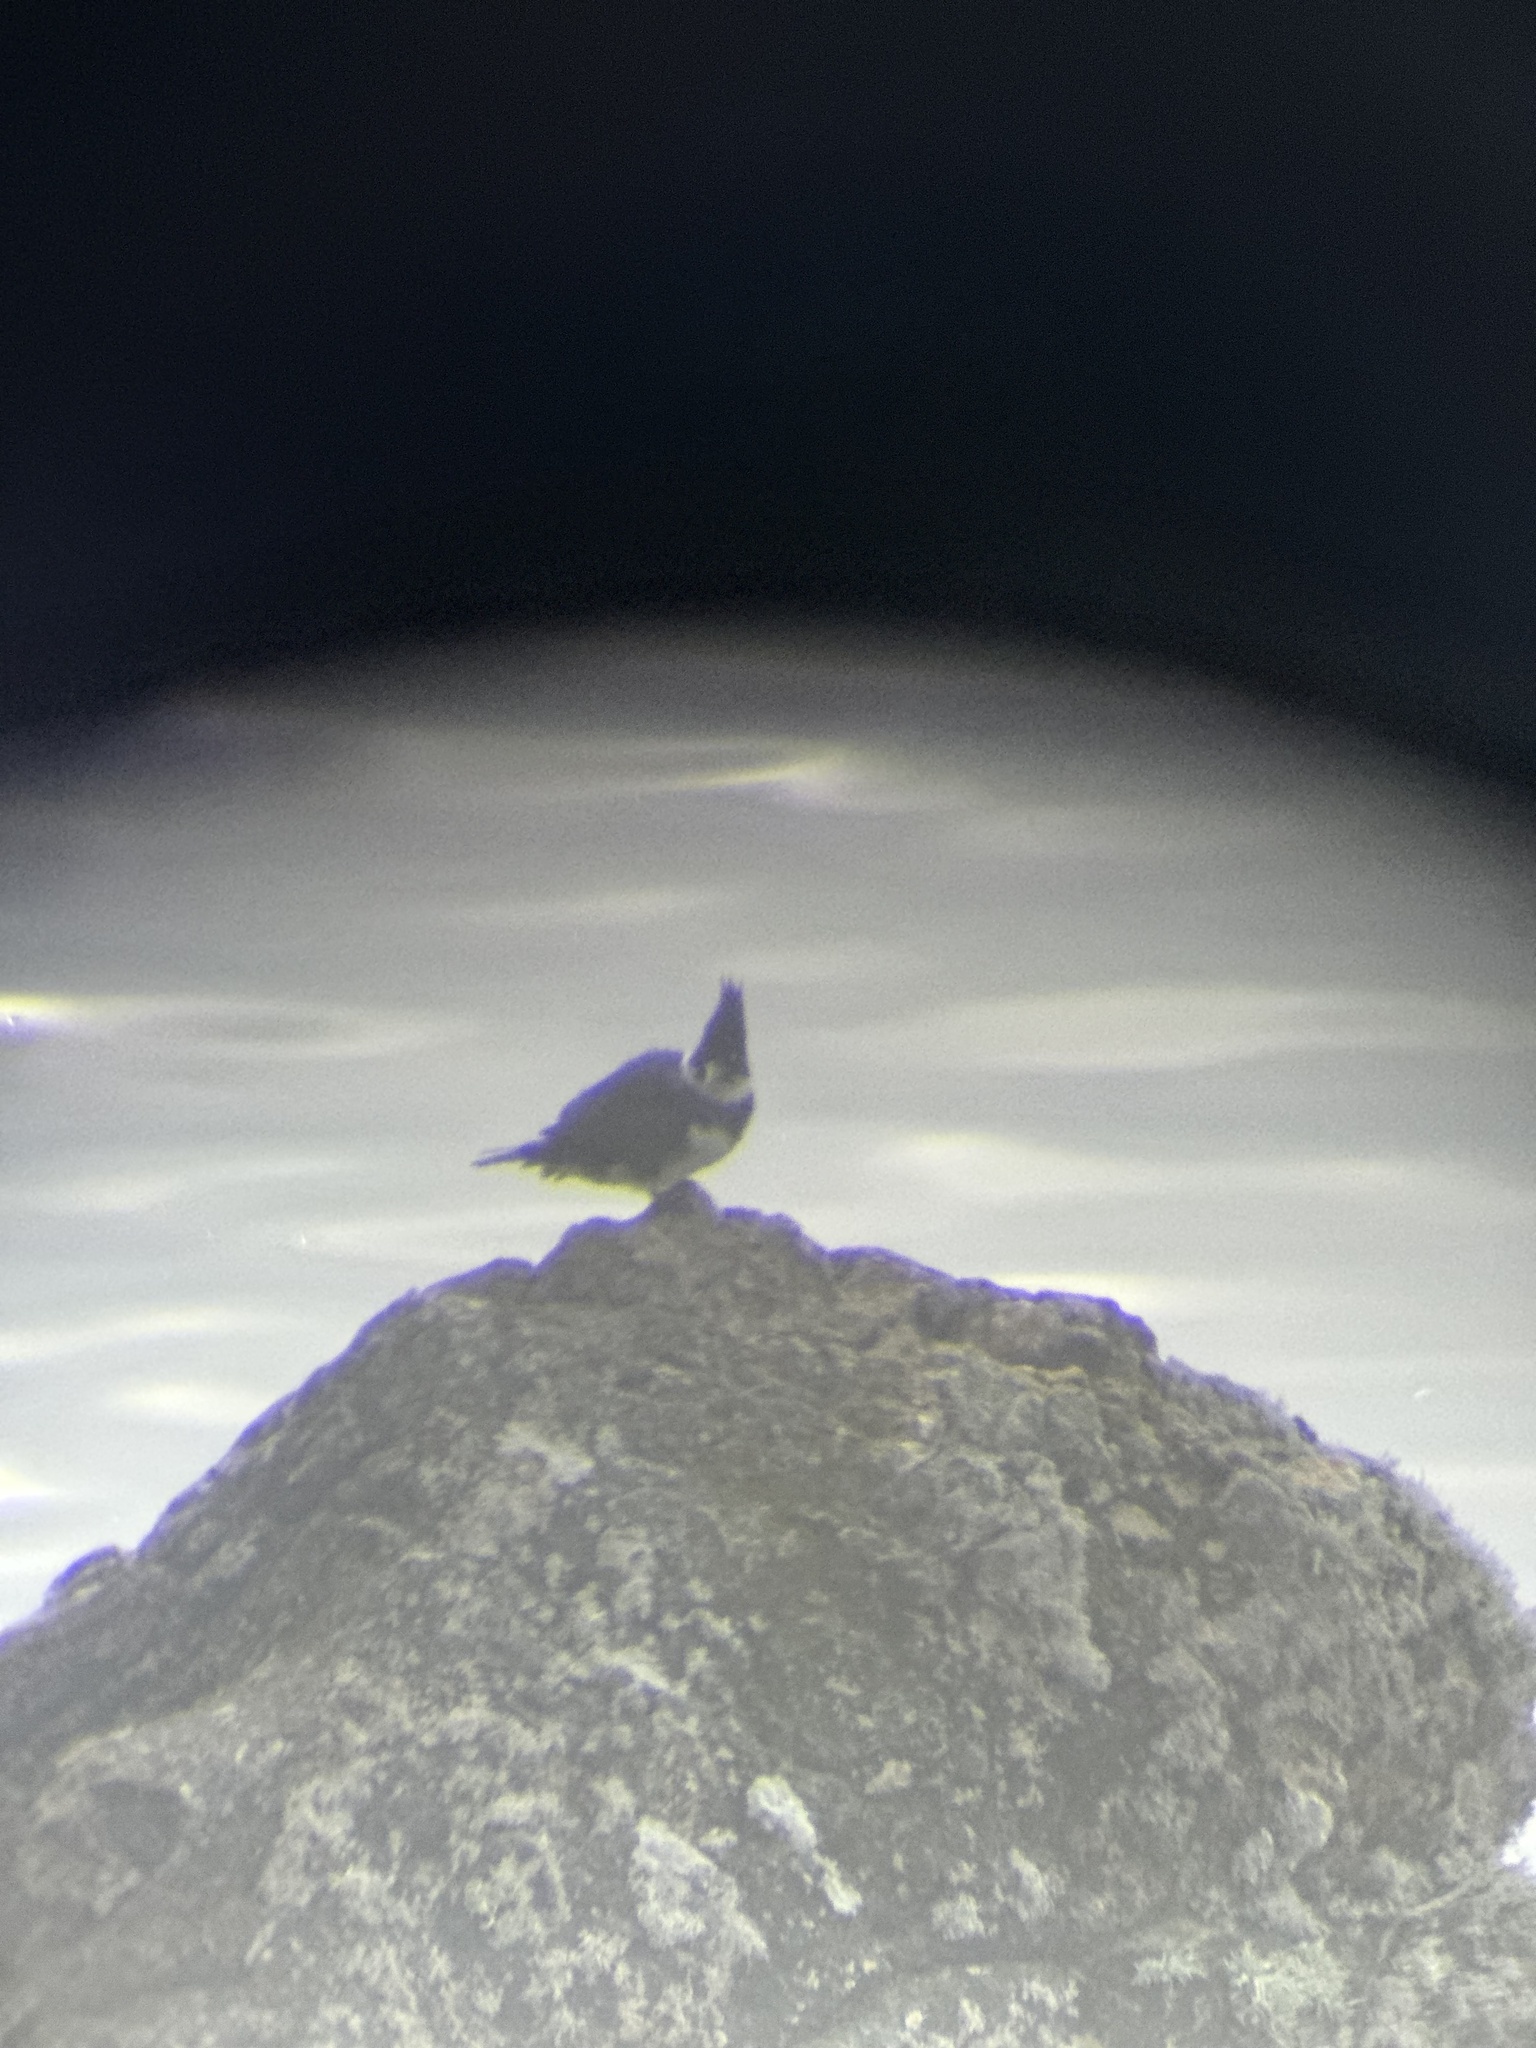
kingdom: Animalia
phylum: Chordata
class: Aves
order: Coraciiformes
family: Alcedinidae
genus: Megaceryle
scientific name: Megaceryle alcyon
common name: Belted kingfisher
